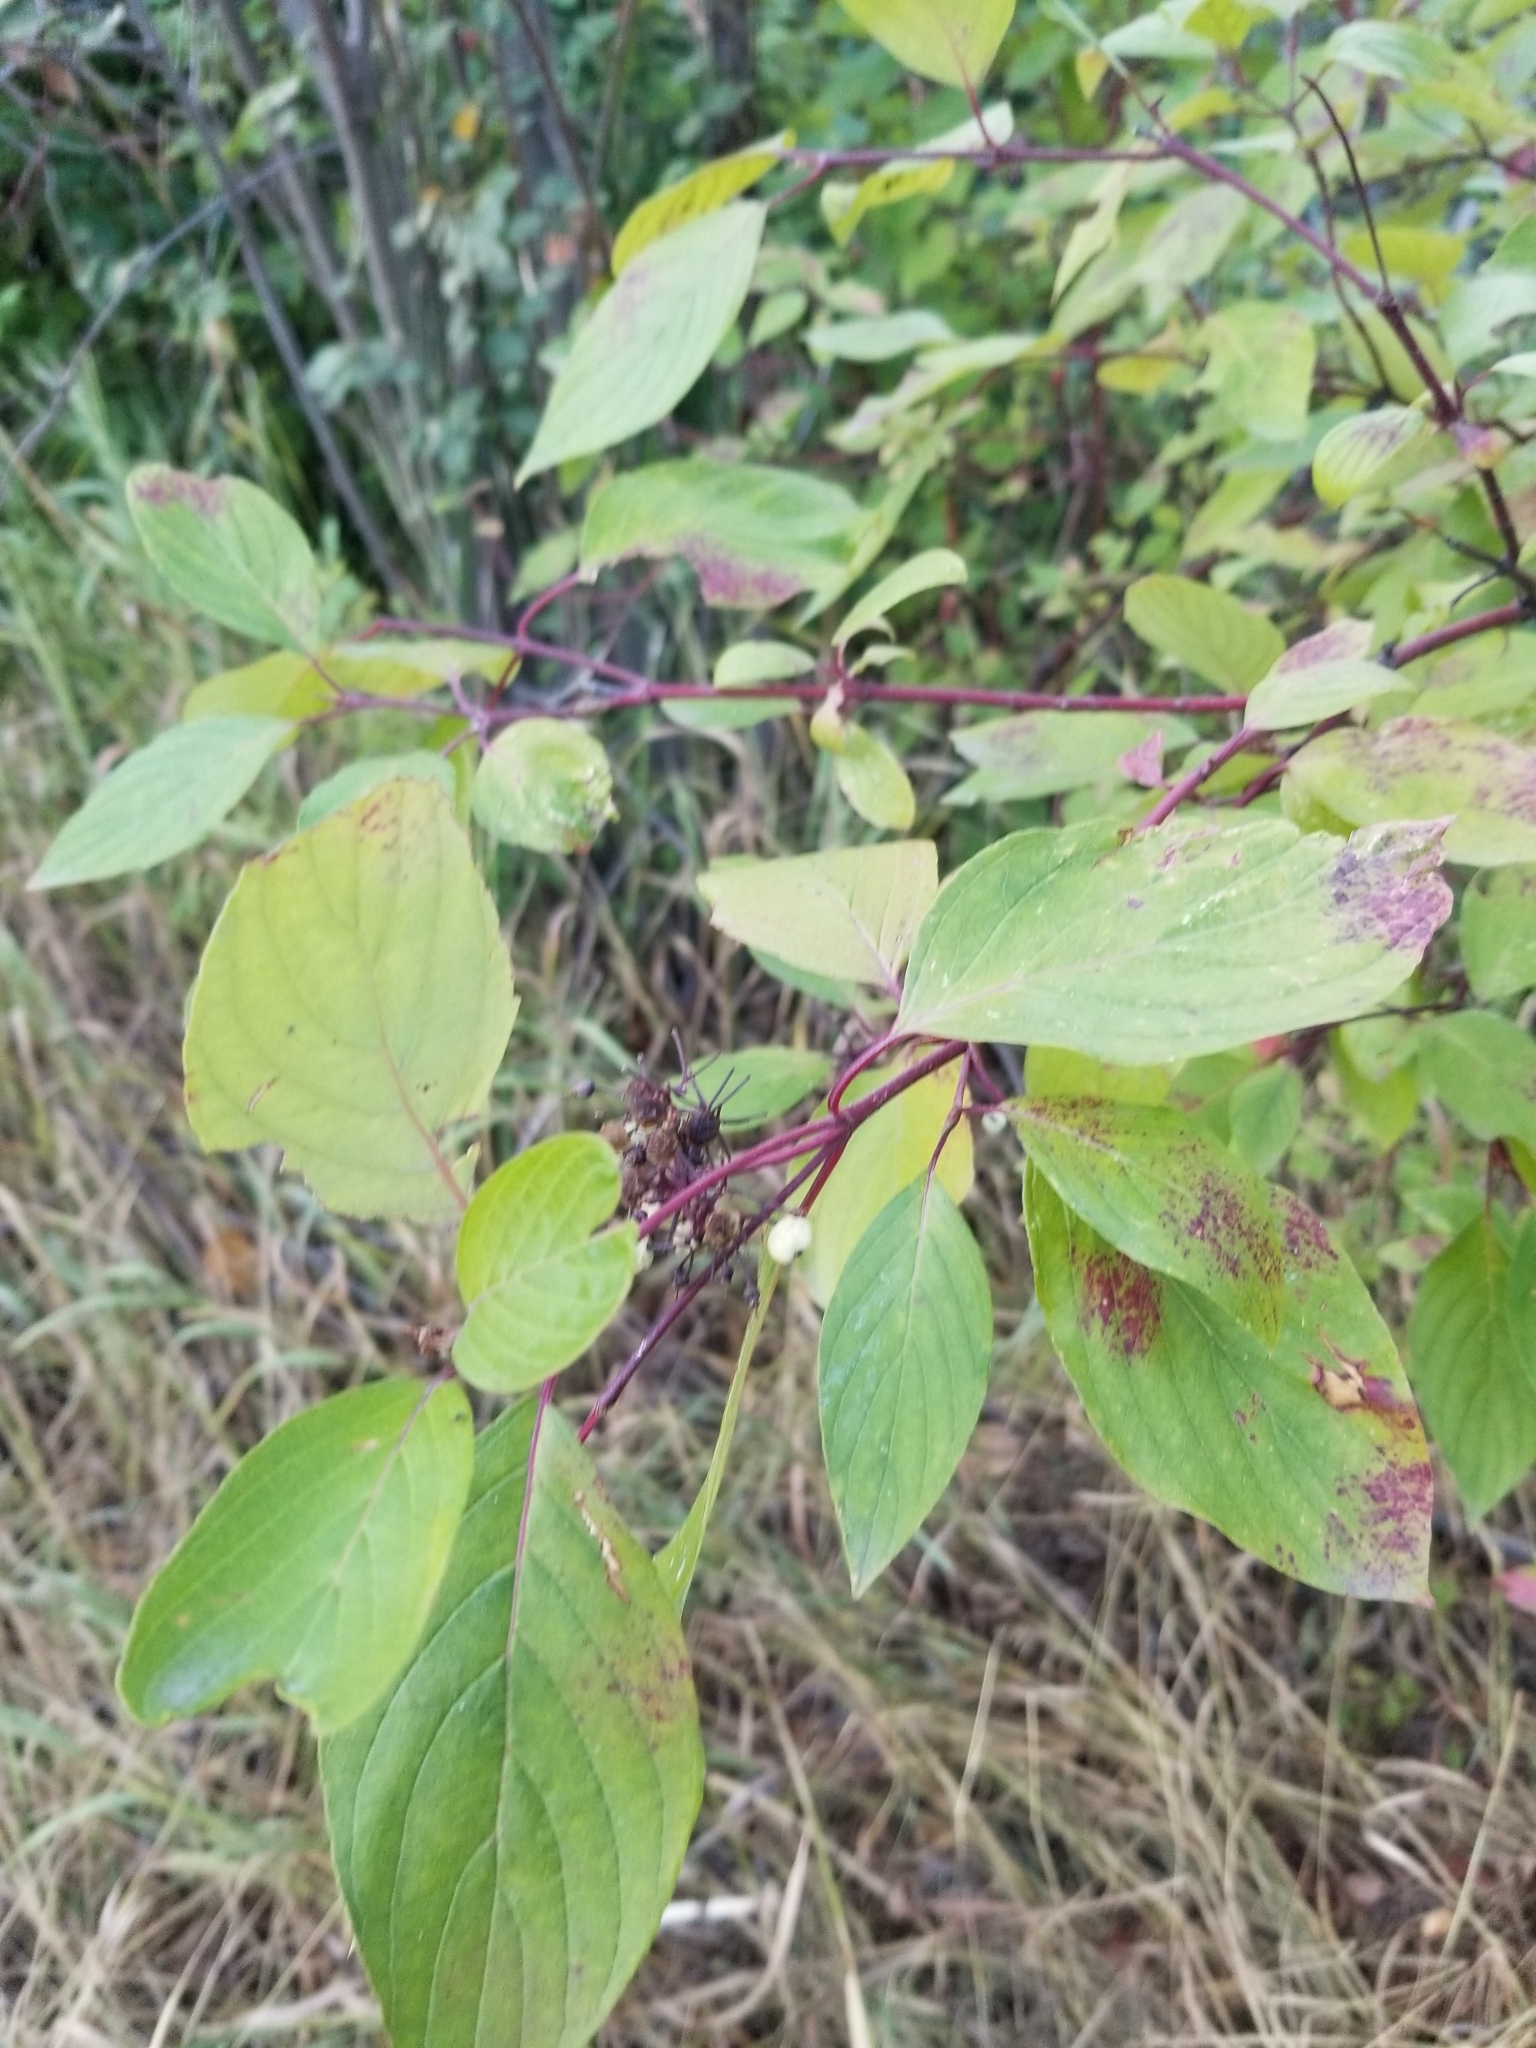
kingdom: Plantae
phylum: Tracheophyta
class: Magnoliopsida
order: Cornales
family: Cornaceae
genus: Cornus
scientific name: Cornus sericea
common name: Red-osier dogwood
